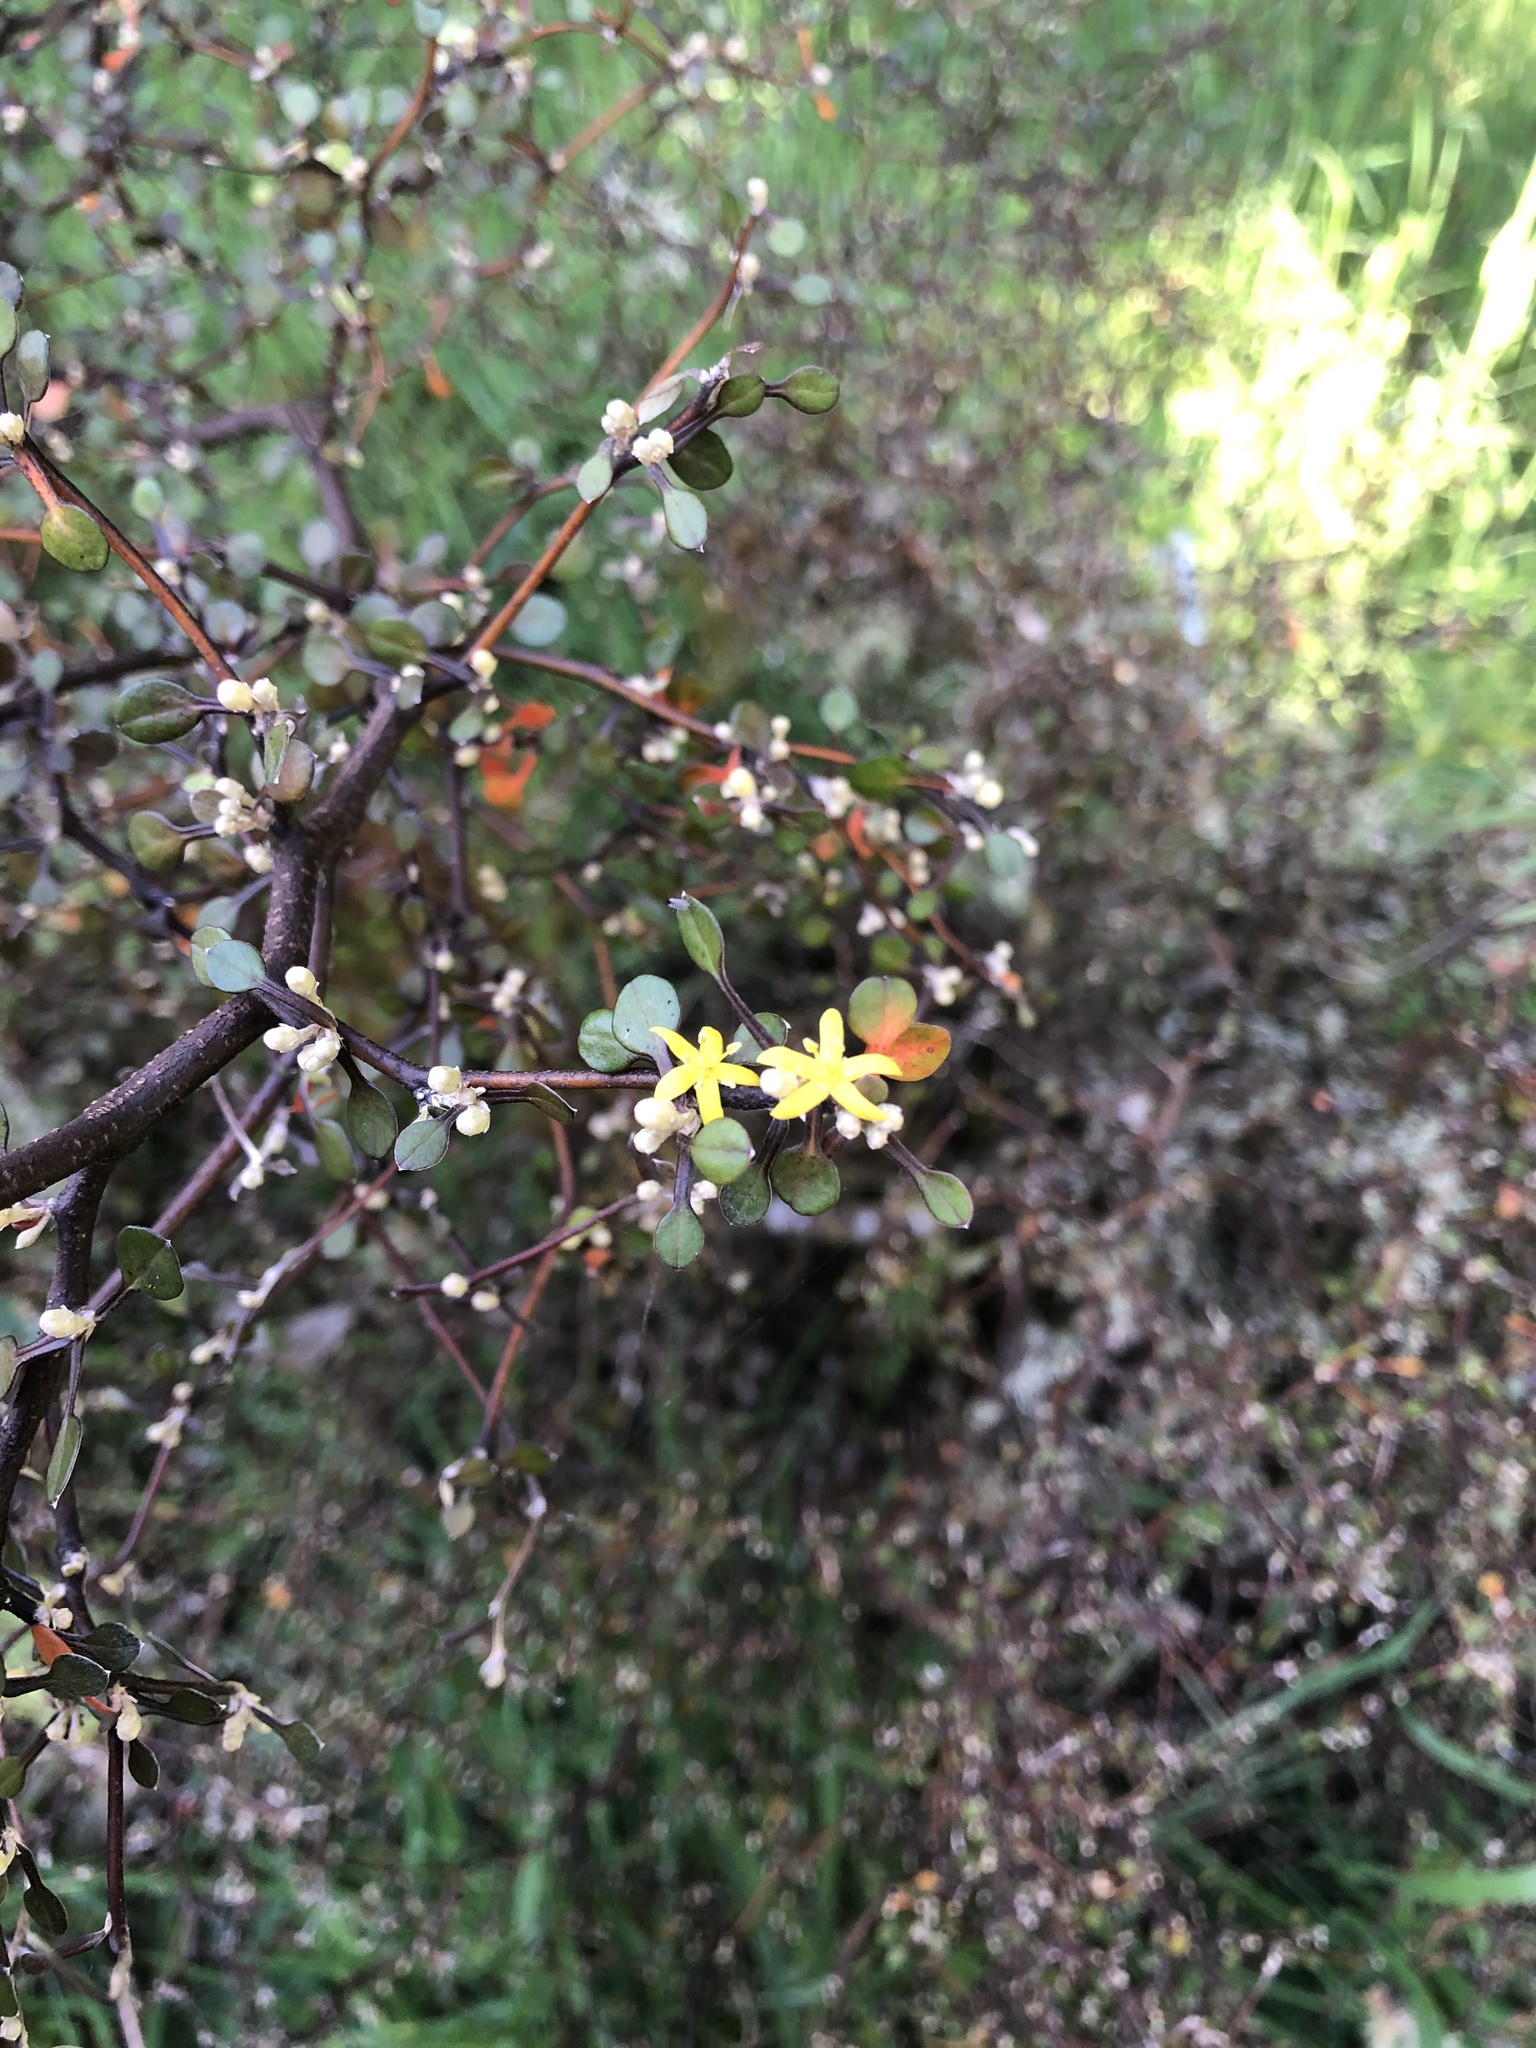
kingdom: Plantae
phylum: Tracheophyta
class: Magnoliopsida
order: Asterales
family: Argophyllaceae
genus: Corokia
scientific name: Corokia cotoneaster
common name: Wire nettingbush
